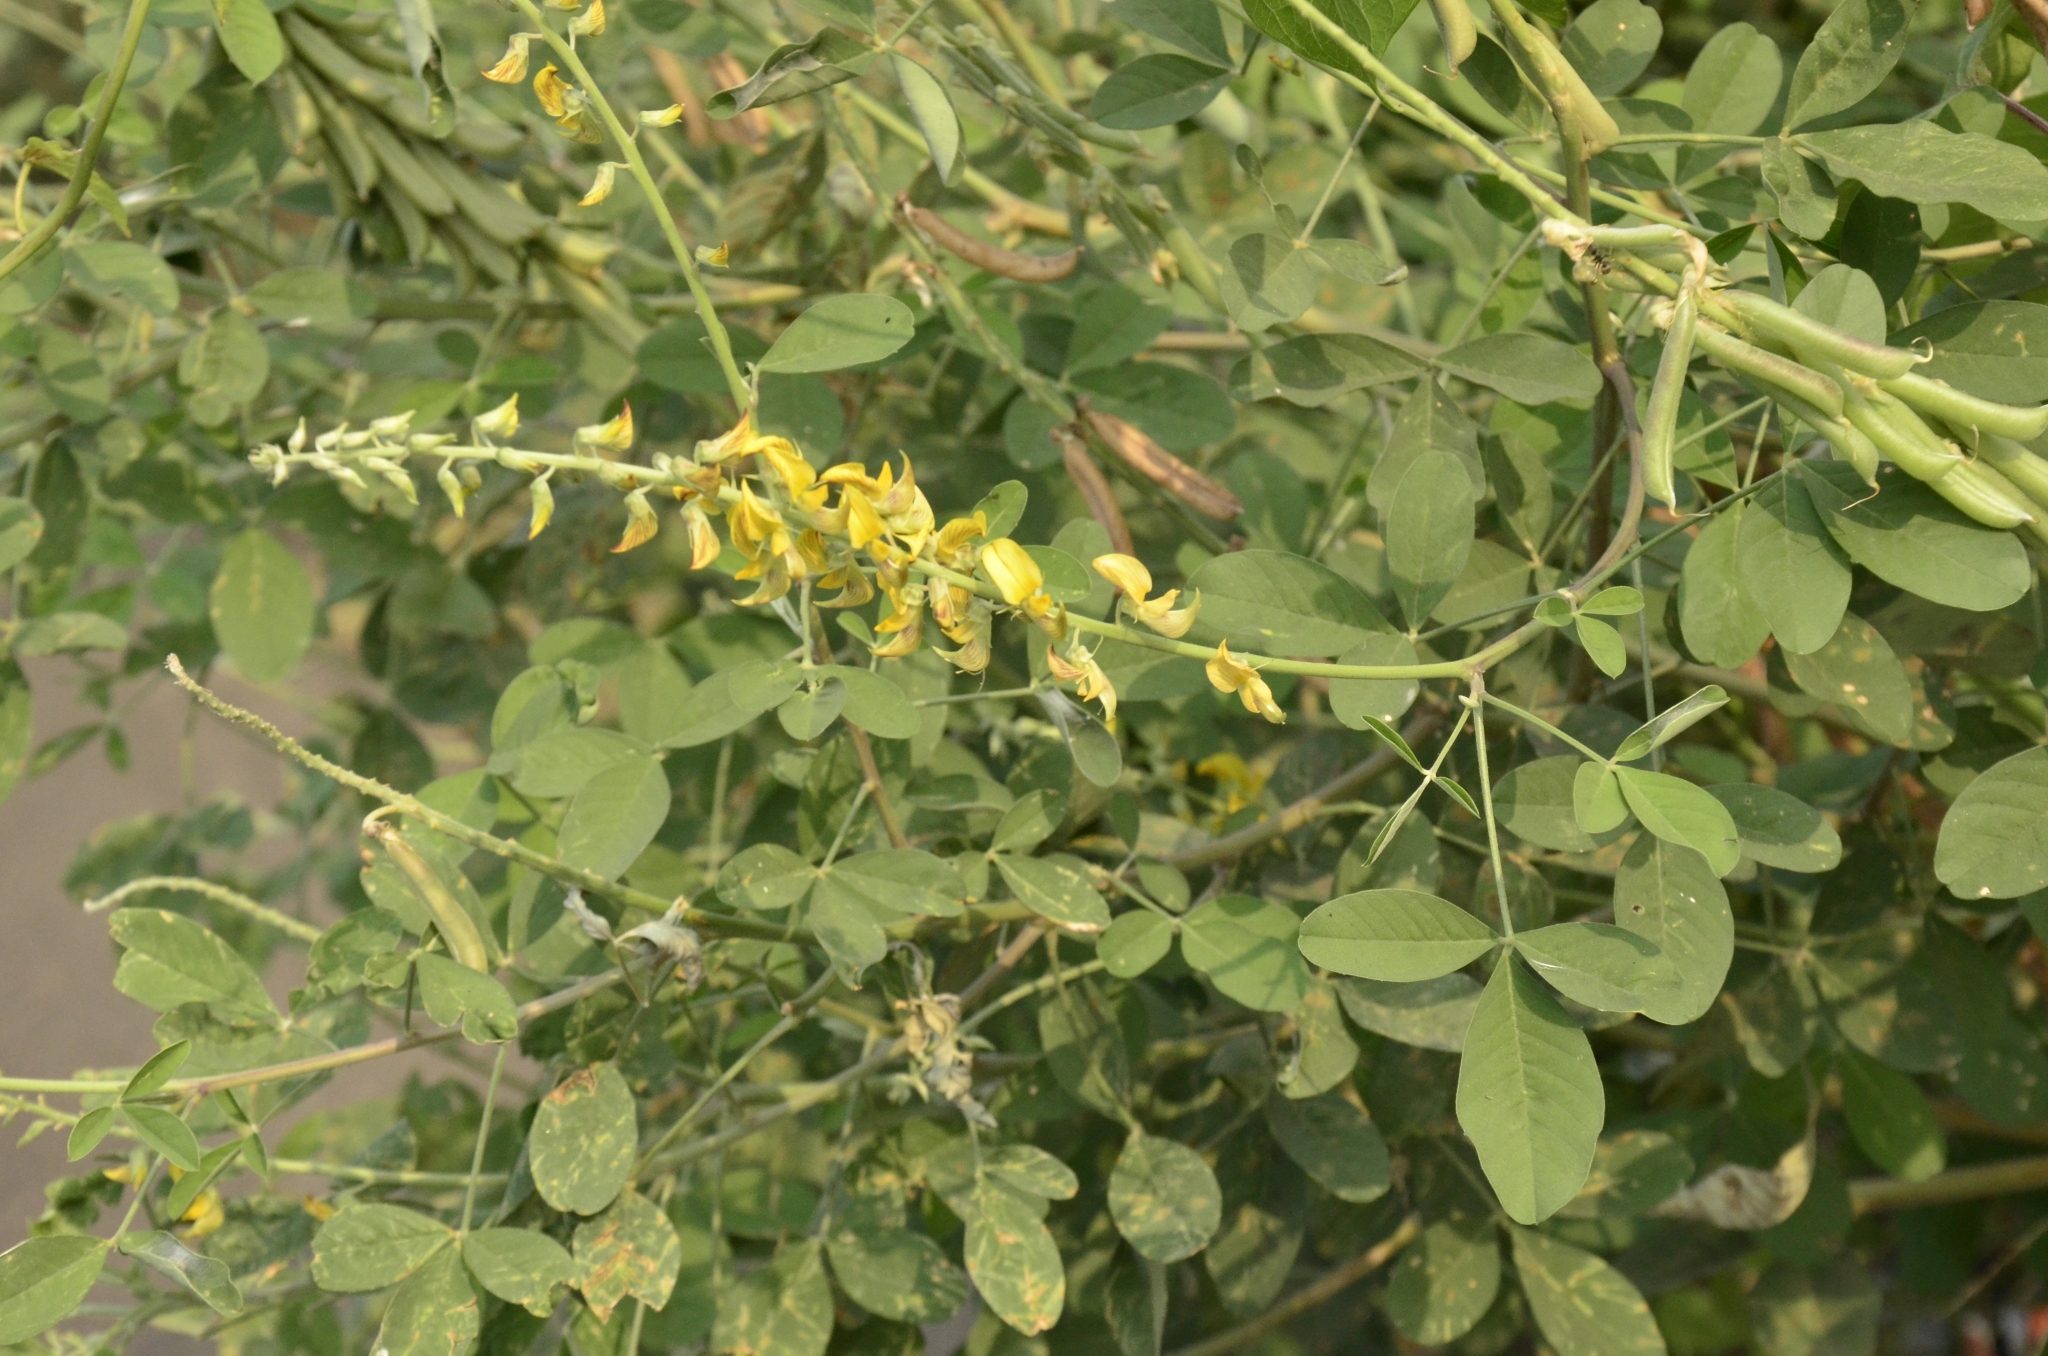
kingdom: Plantae
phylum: Tracheophyta
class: Magnoliopsida
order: Fabales
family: Fabaceae
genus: Crotalaria
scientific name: Crotalaria pallida
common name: Smooth rattlebox
